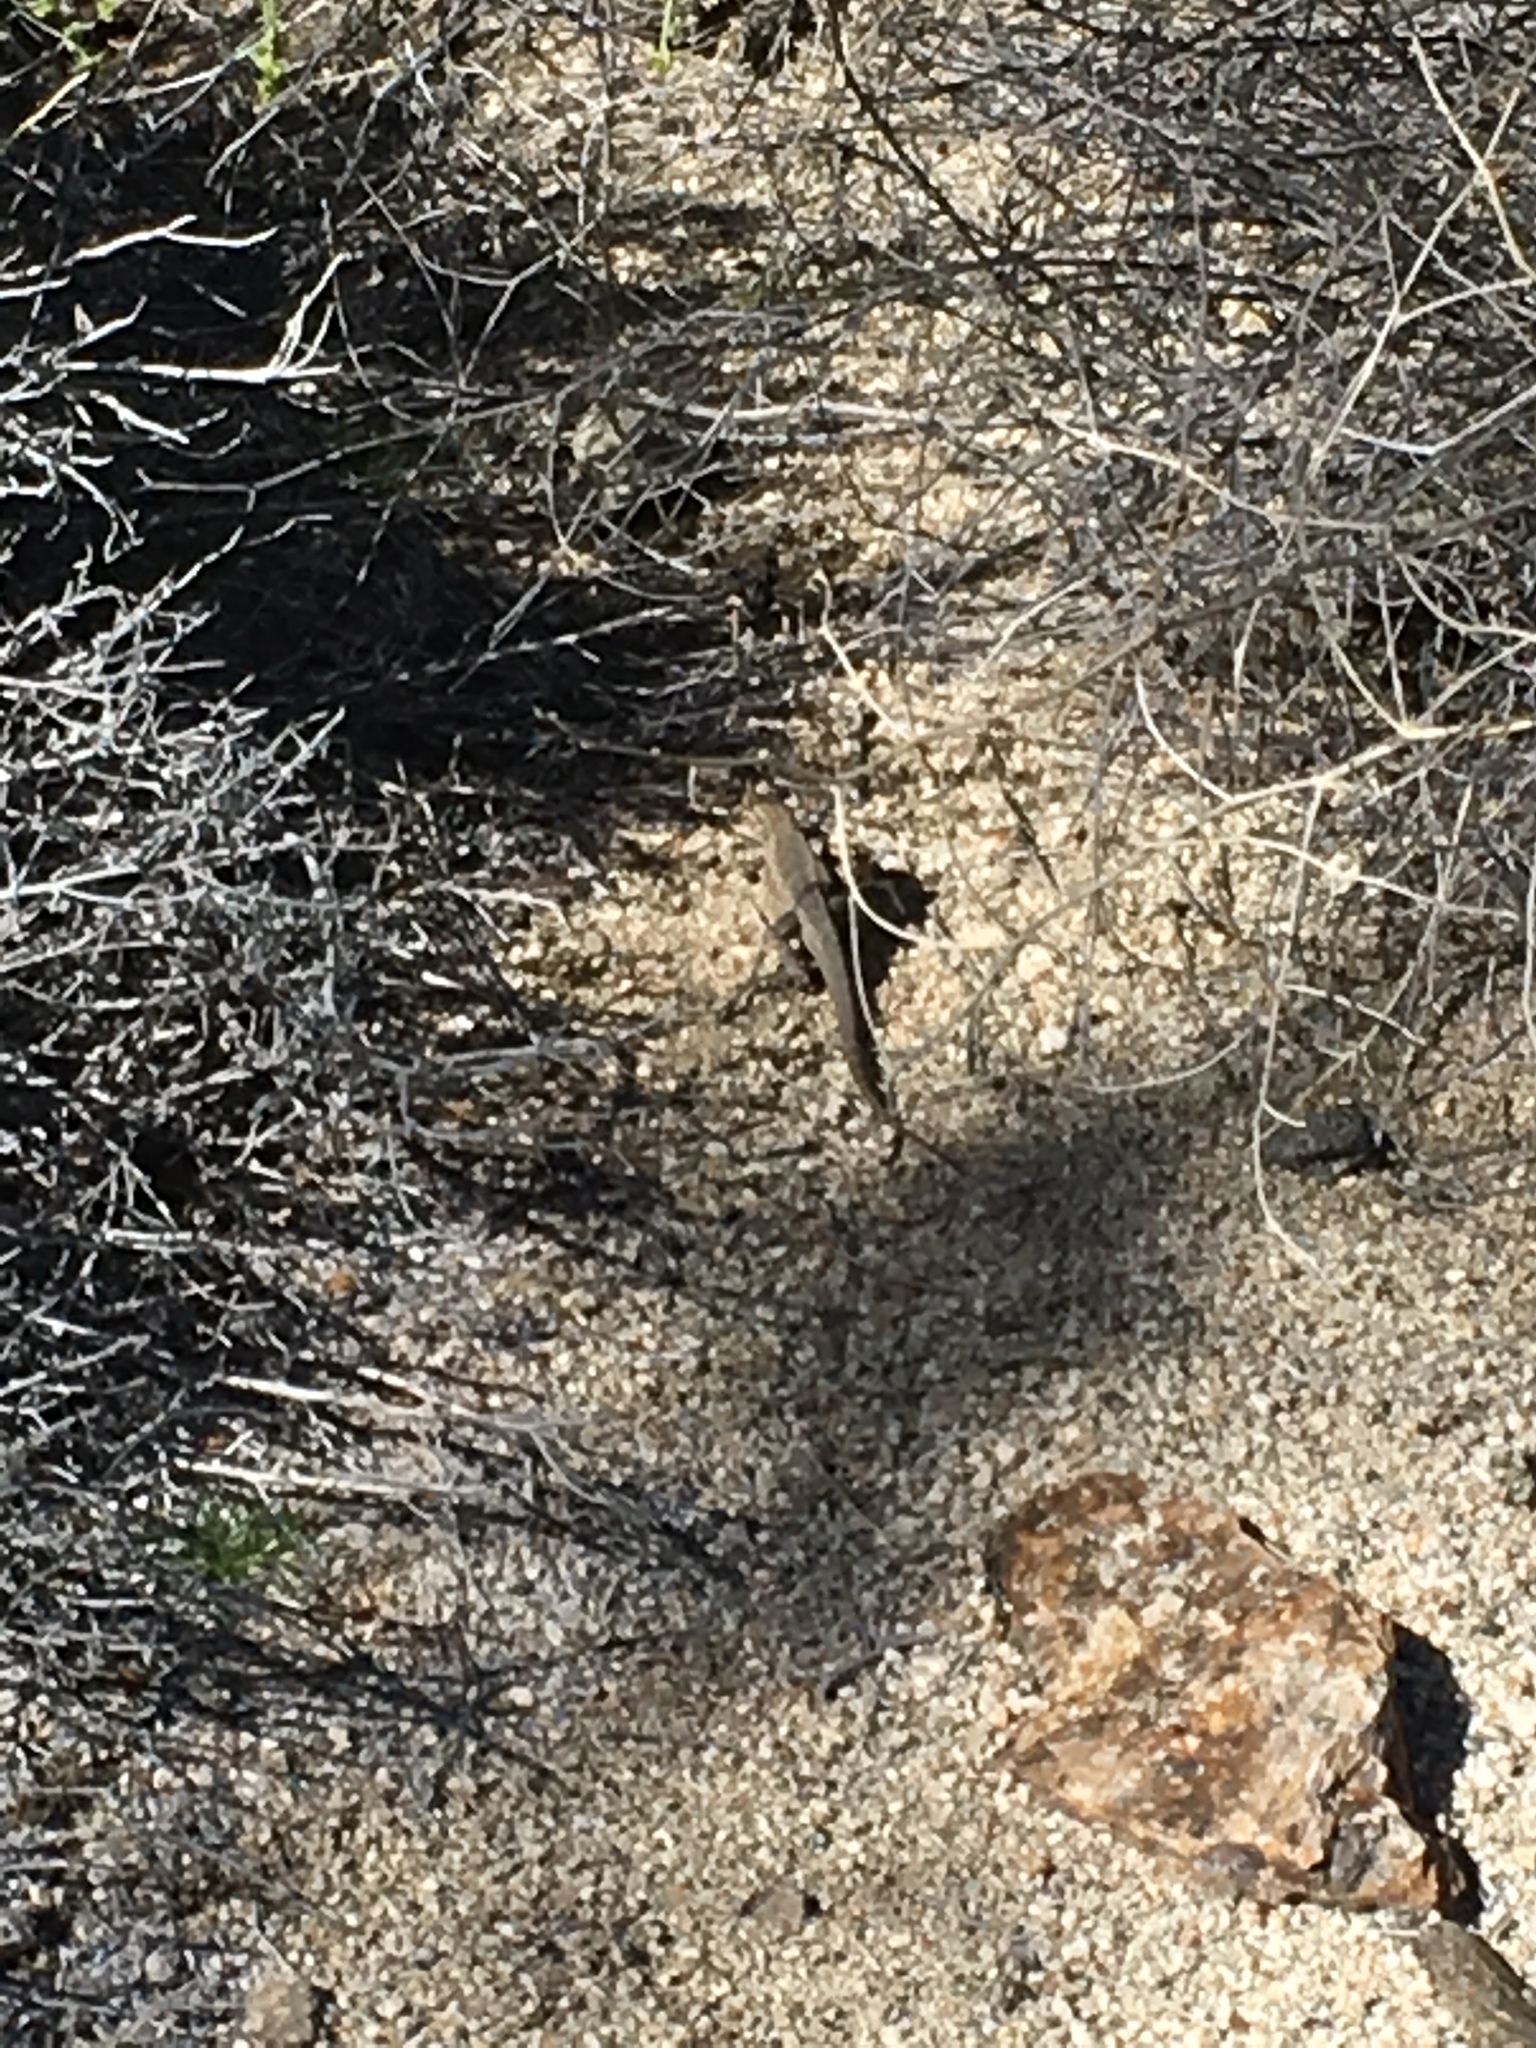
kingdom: Animalia
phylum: Chordata
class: Squamata
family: Phrynosomatidae
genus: Uta
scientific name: Uta stansburiana
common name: Side-blotched lizard
